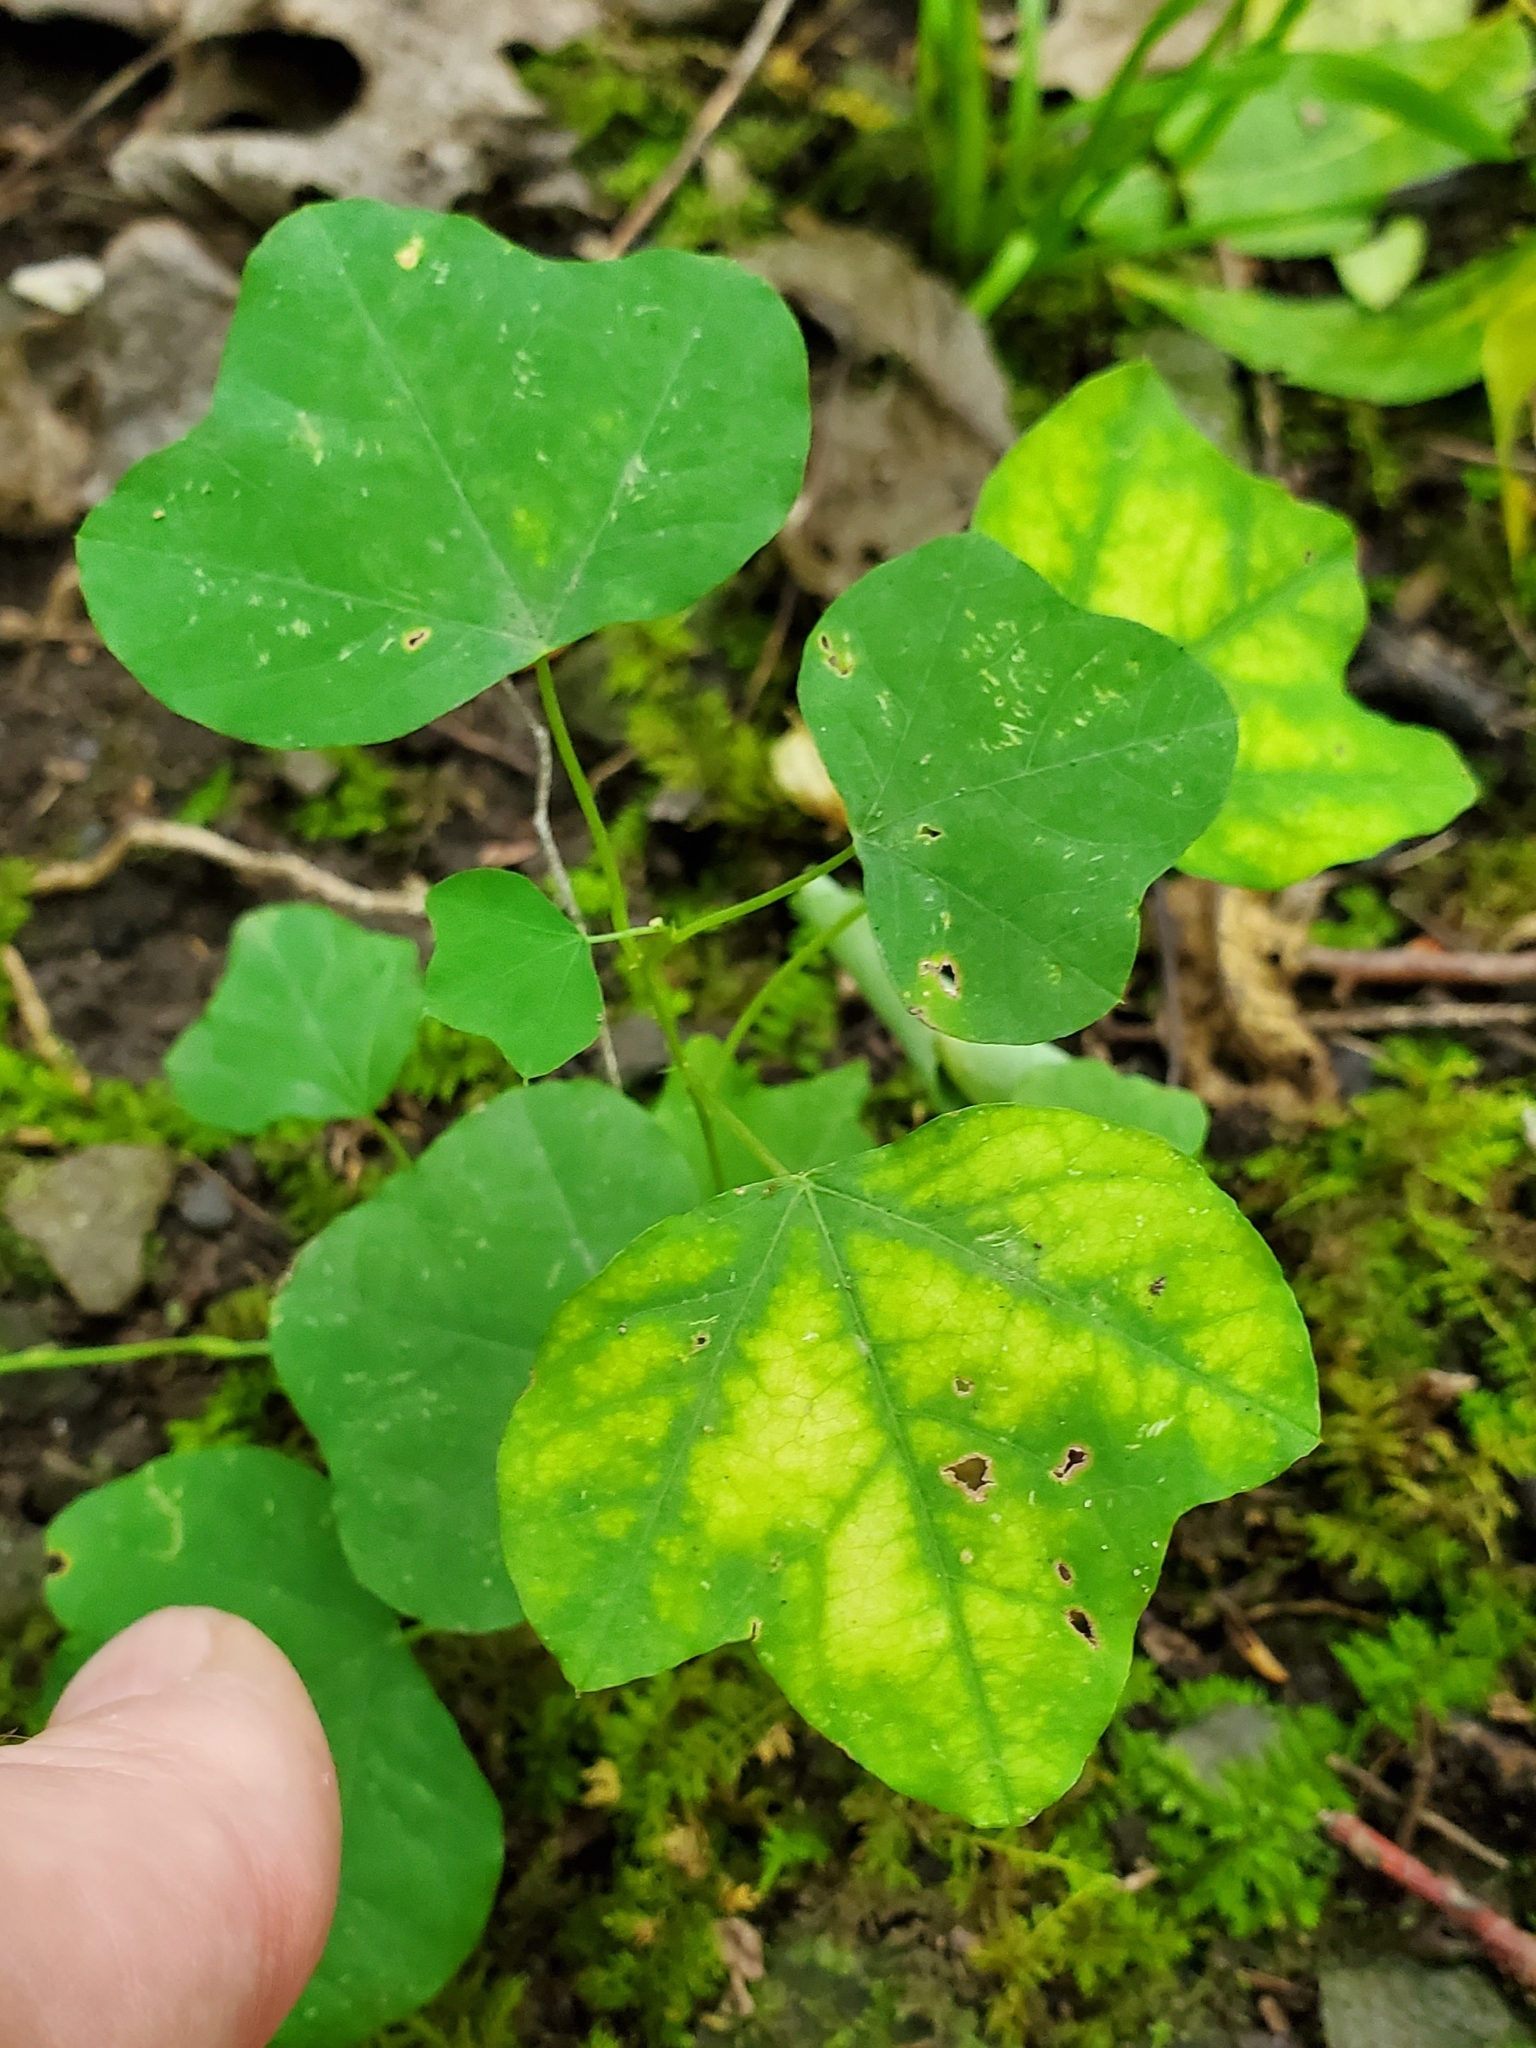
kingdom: Plantae
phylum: Tracheophyta
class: Magnoliopsida
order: Malpighiales
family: Passifloraceae
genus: Passiflora
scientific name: Passiflora lutea
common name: Yellow passionflower
